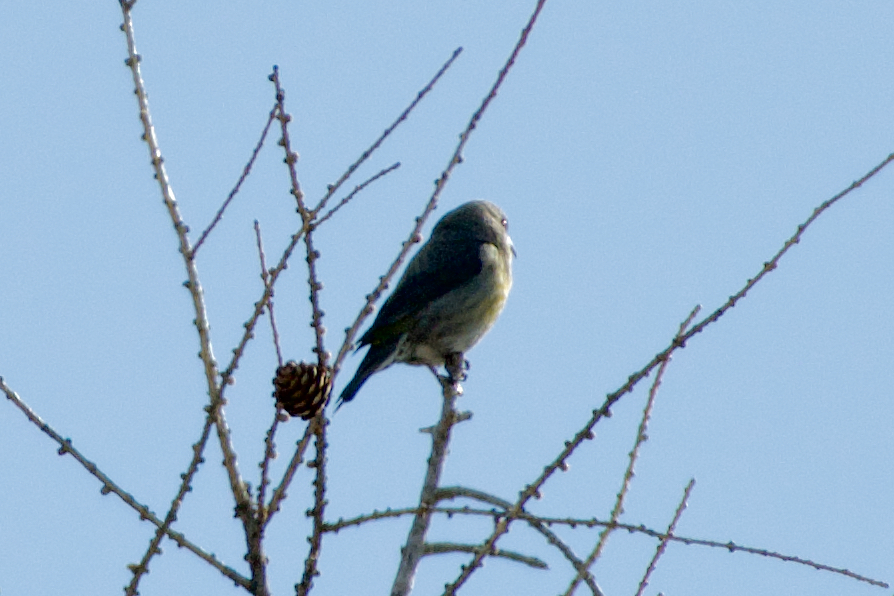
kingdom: Animalia
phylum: Chordata
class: Aves
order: Passeriformes
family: Fringillidae
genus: Loxia
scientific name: Loxia curvirostra
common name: Red crossbill
